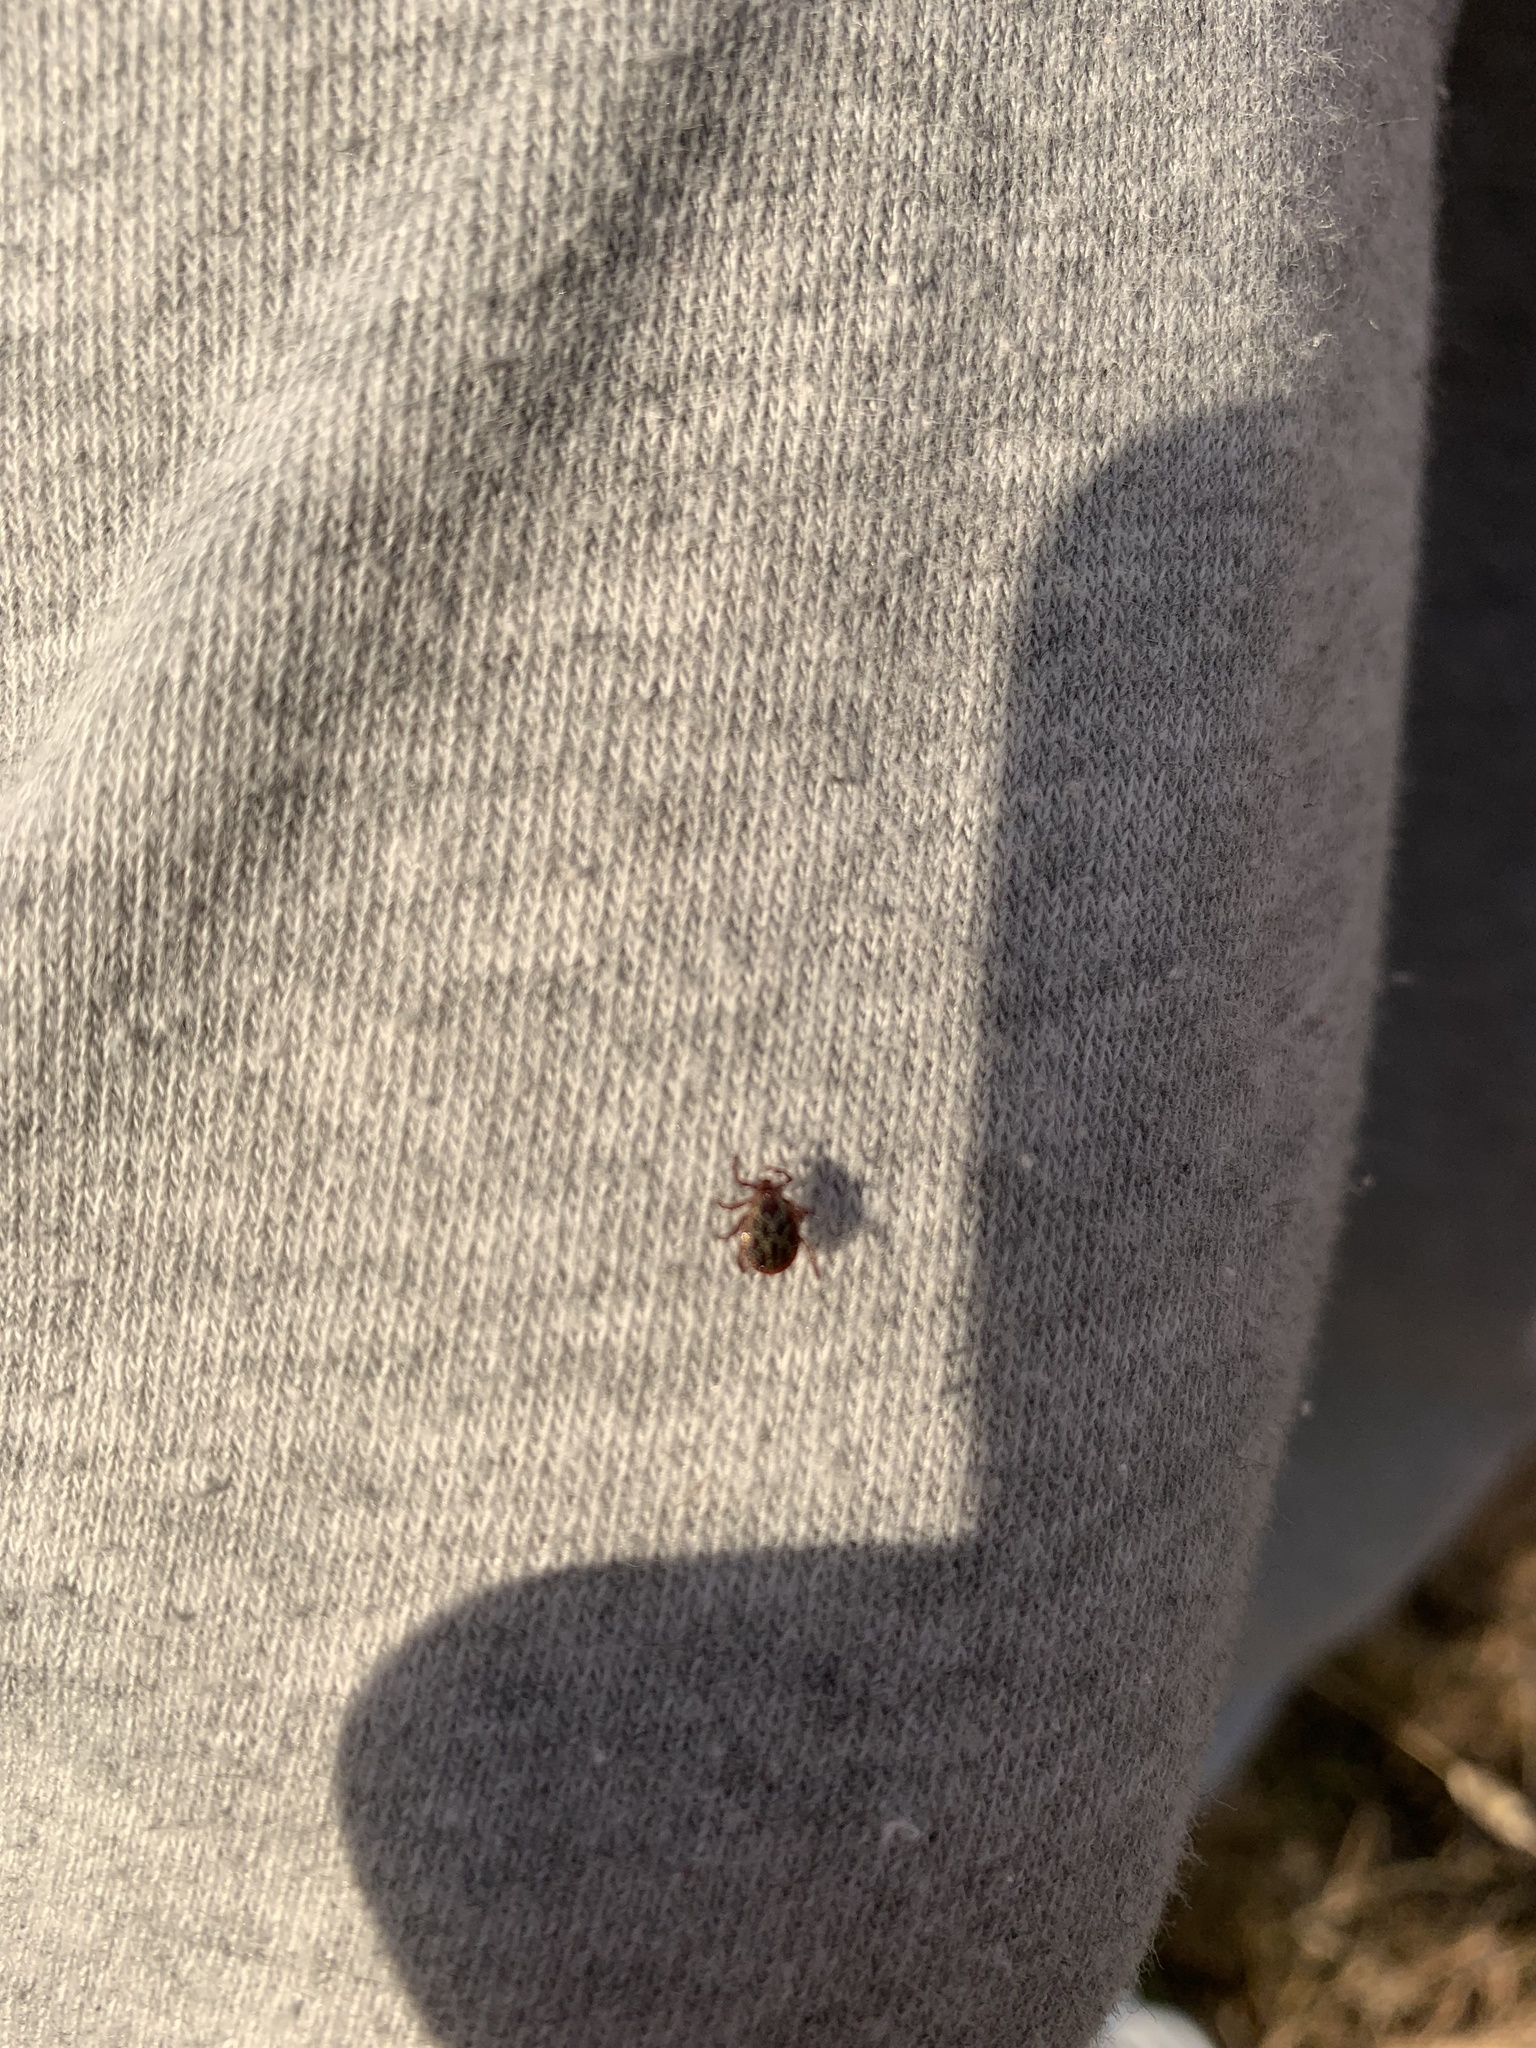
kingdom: Animalia
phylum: Arthropoda
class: Arachnida
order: Ixodida
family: Ixodidae
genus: Dermacentor
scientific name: Dermacentor reticulatus
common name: Ornate cow tick
